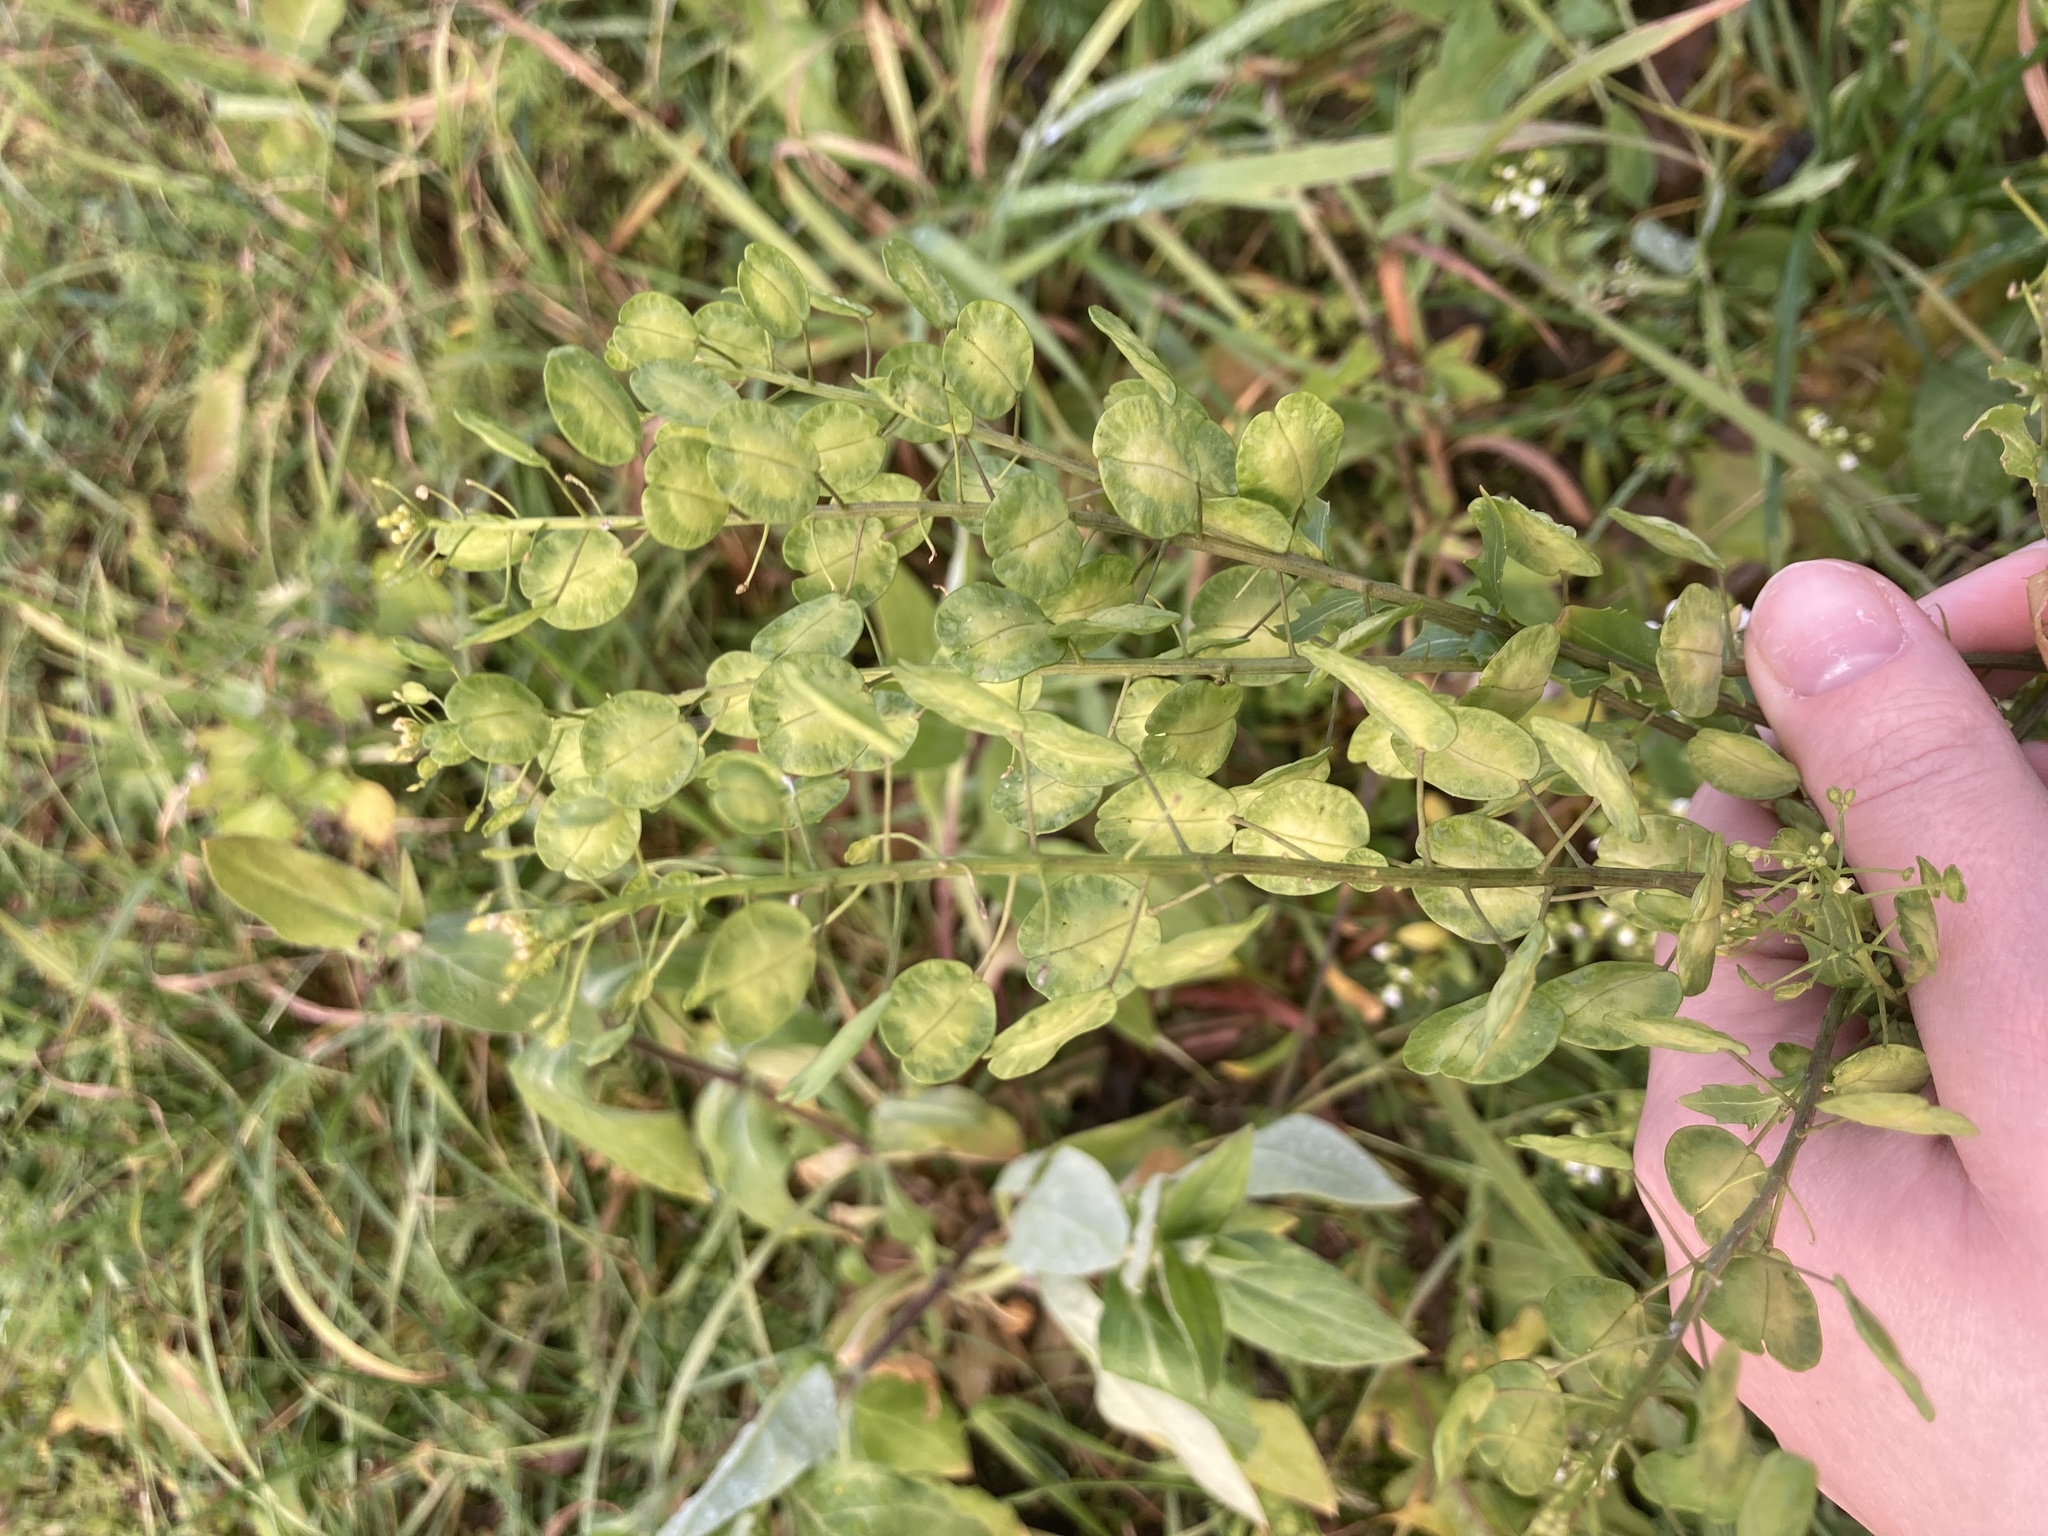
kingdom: Plantae
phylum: Tracheophyta
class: Magnoliopsida
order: Brassicales
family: Brassicaceae
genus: Thlaspi
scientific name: Thlaspi arvense
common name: Field pennycress
